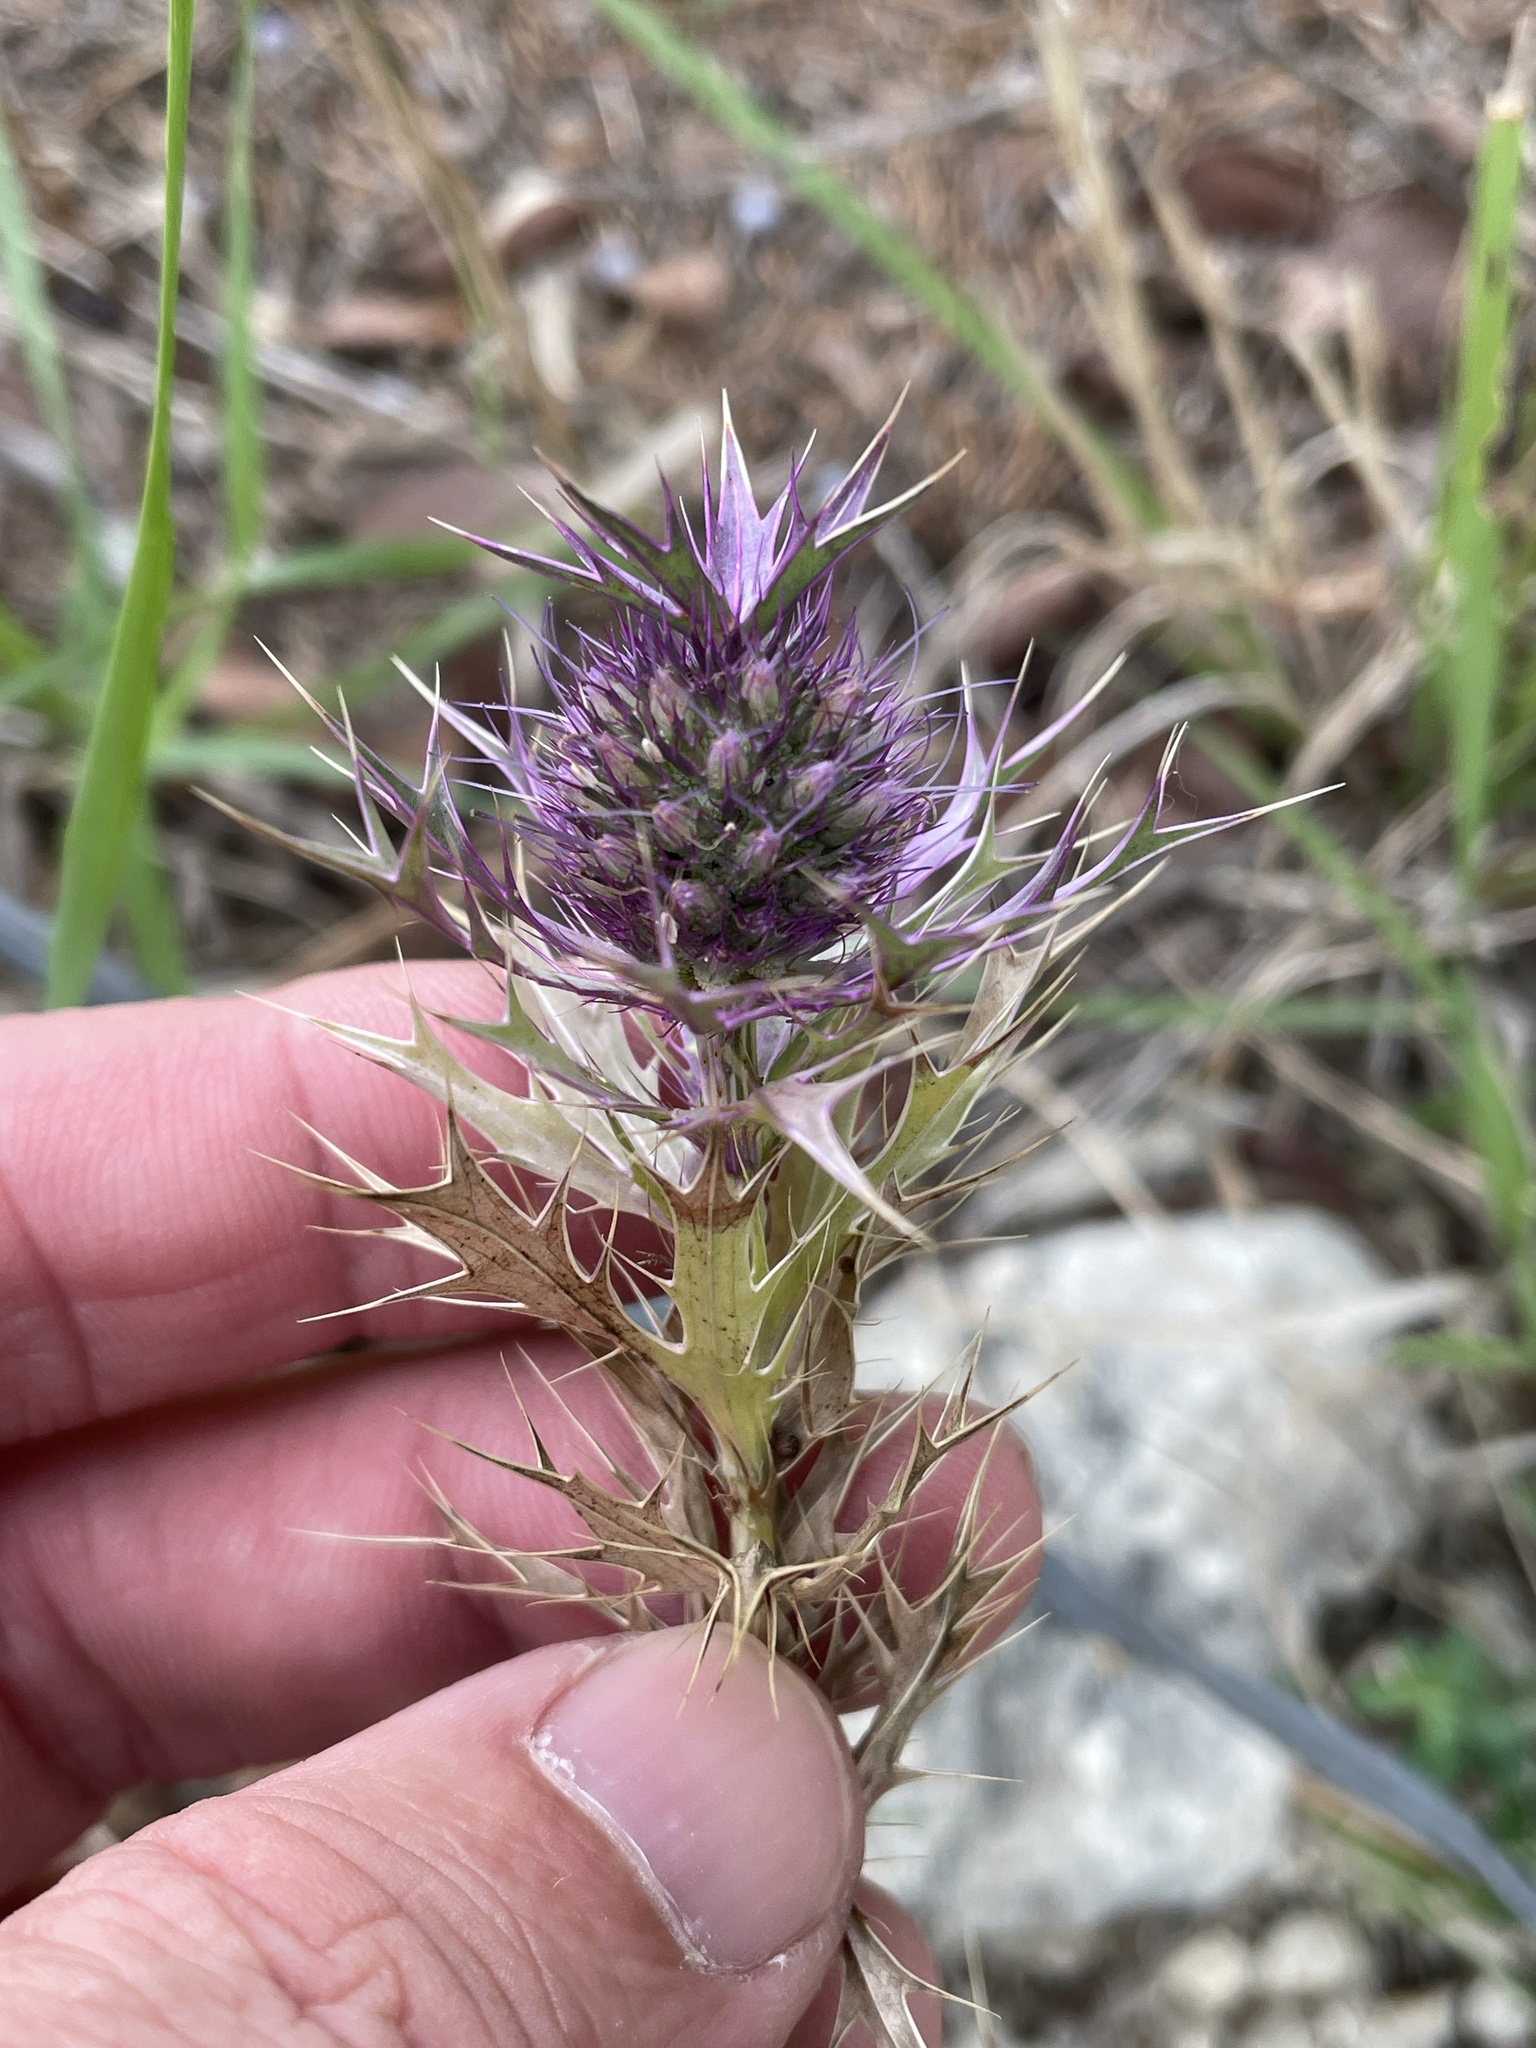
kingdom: Plantae
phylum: Tracheophyta
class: Magnoliopsida
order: Apiales
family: Apiaceae
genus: Eryngium
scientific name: Eryngium leavenworthii
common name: Leavenworth's eryngo
